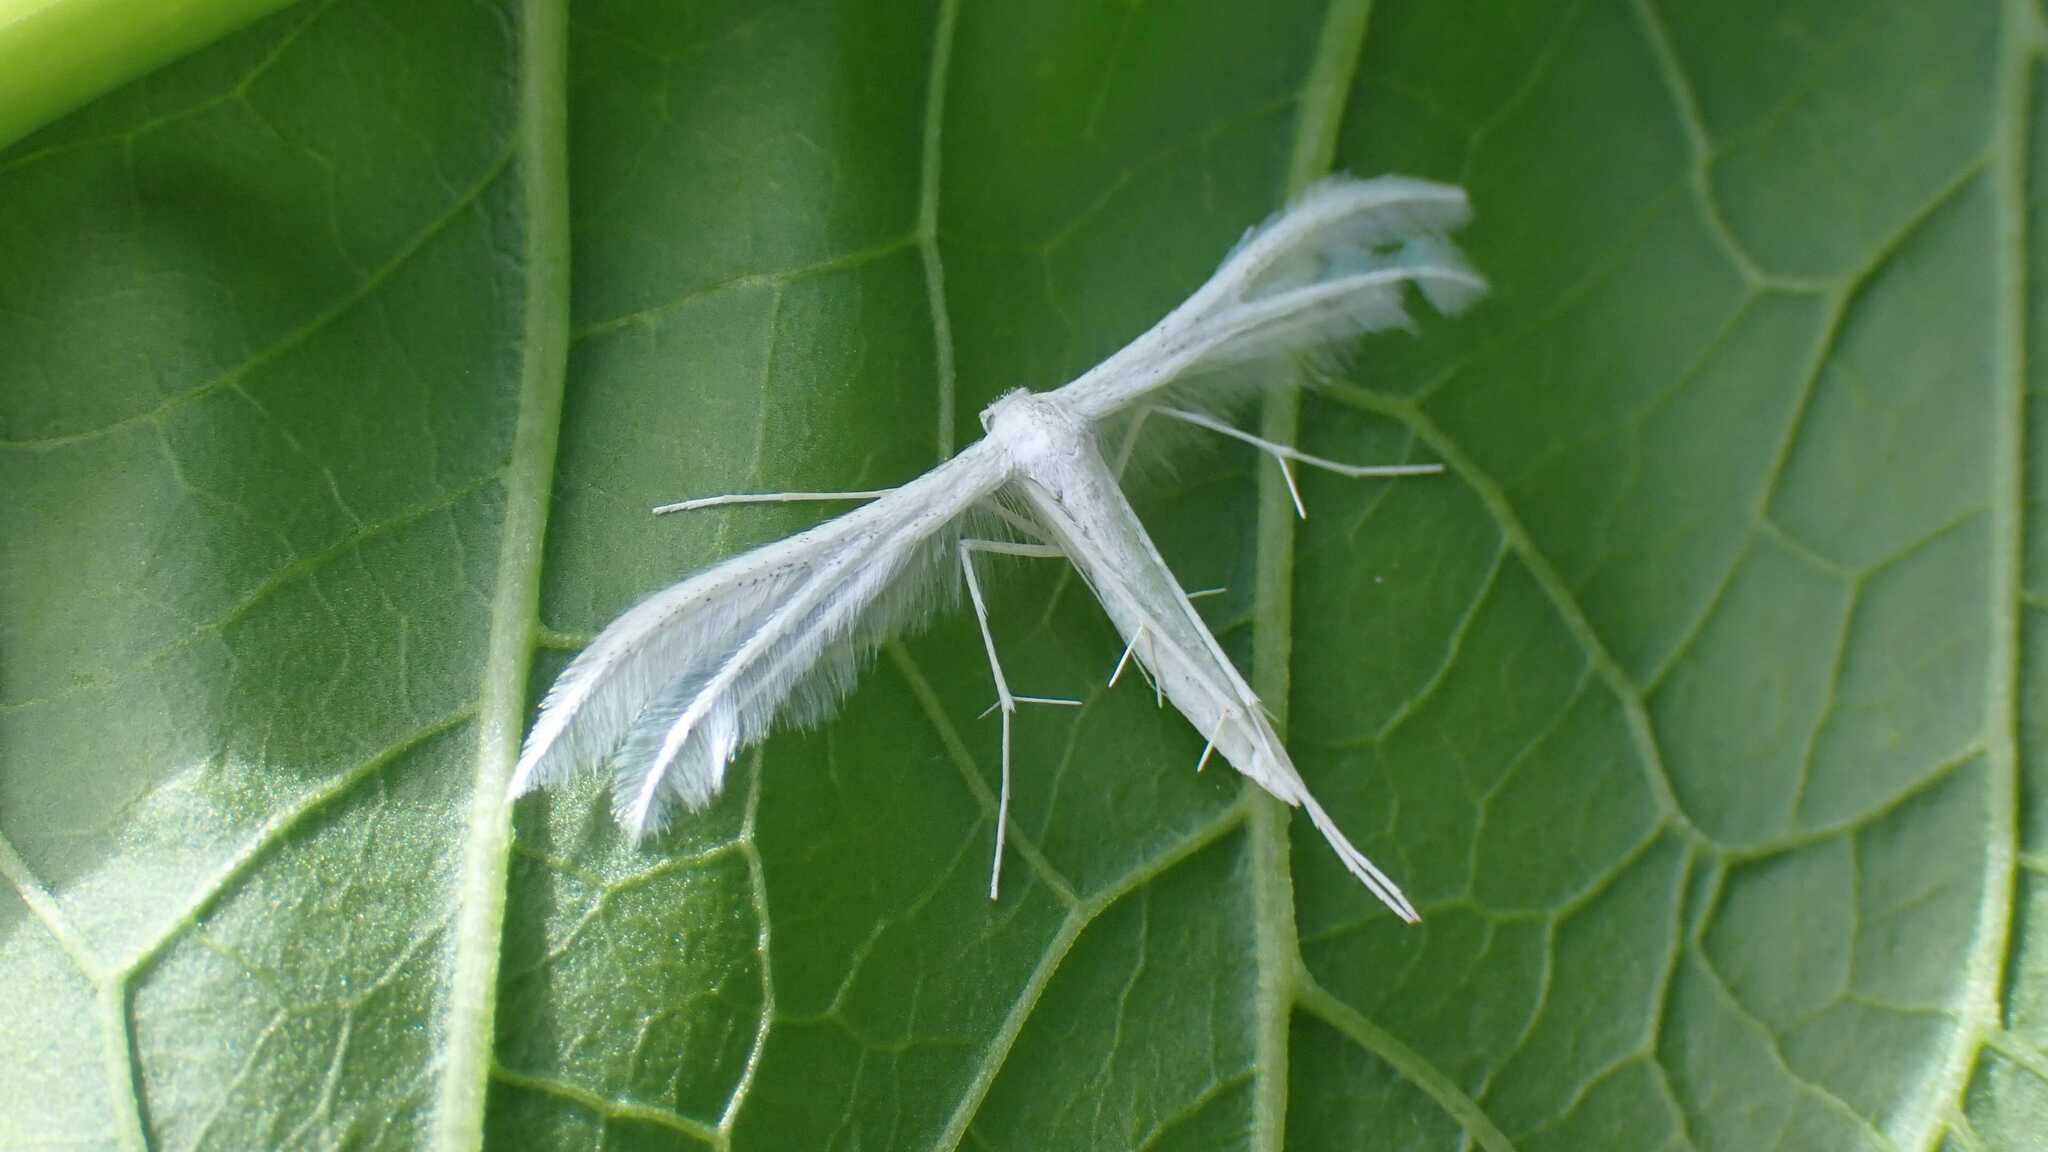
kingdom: Animalia
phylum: Arthropoda
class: Insecta
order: Lepidoptera
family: Pterophoridae
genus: Pterophorus
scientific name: Pterophorus pentadactyla
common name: White plume moth
